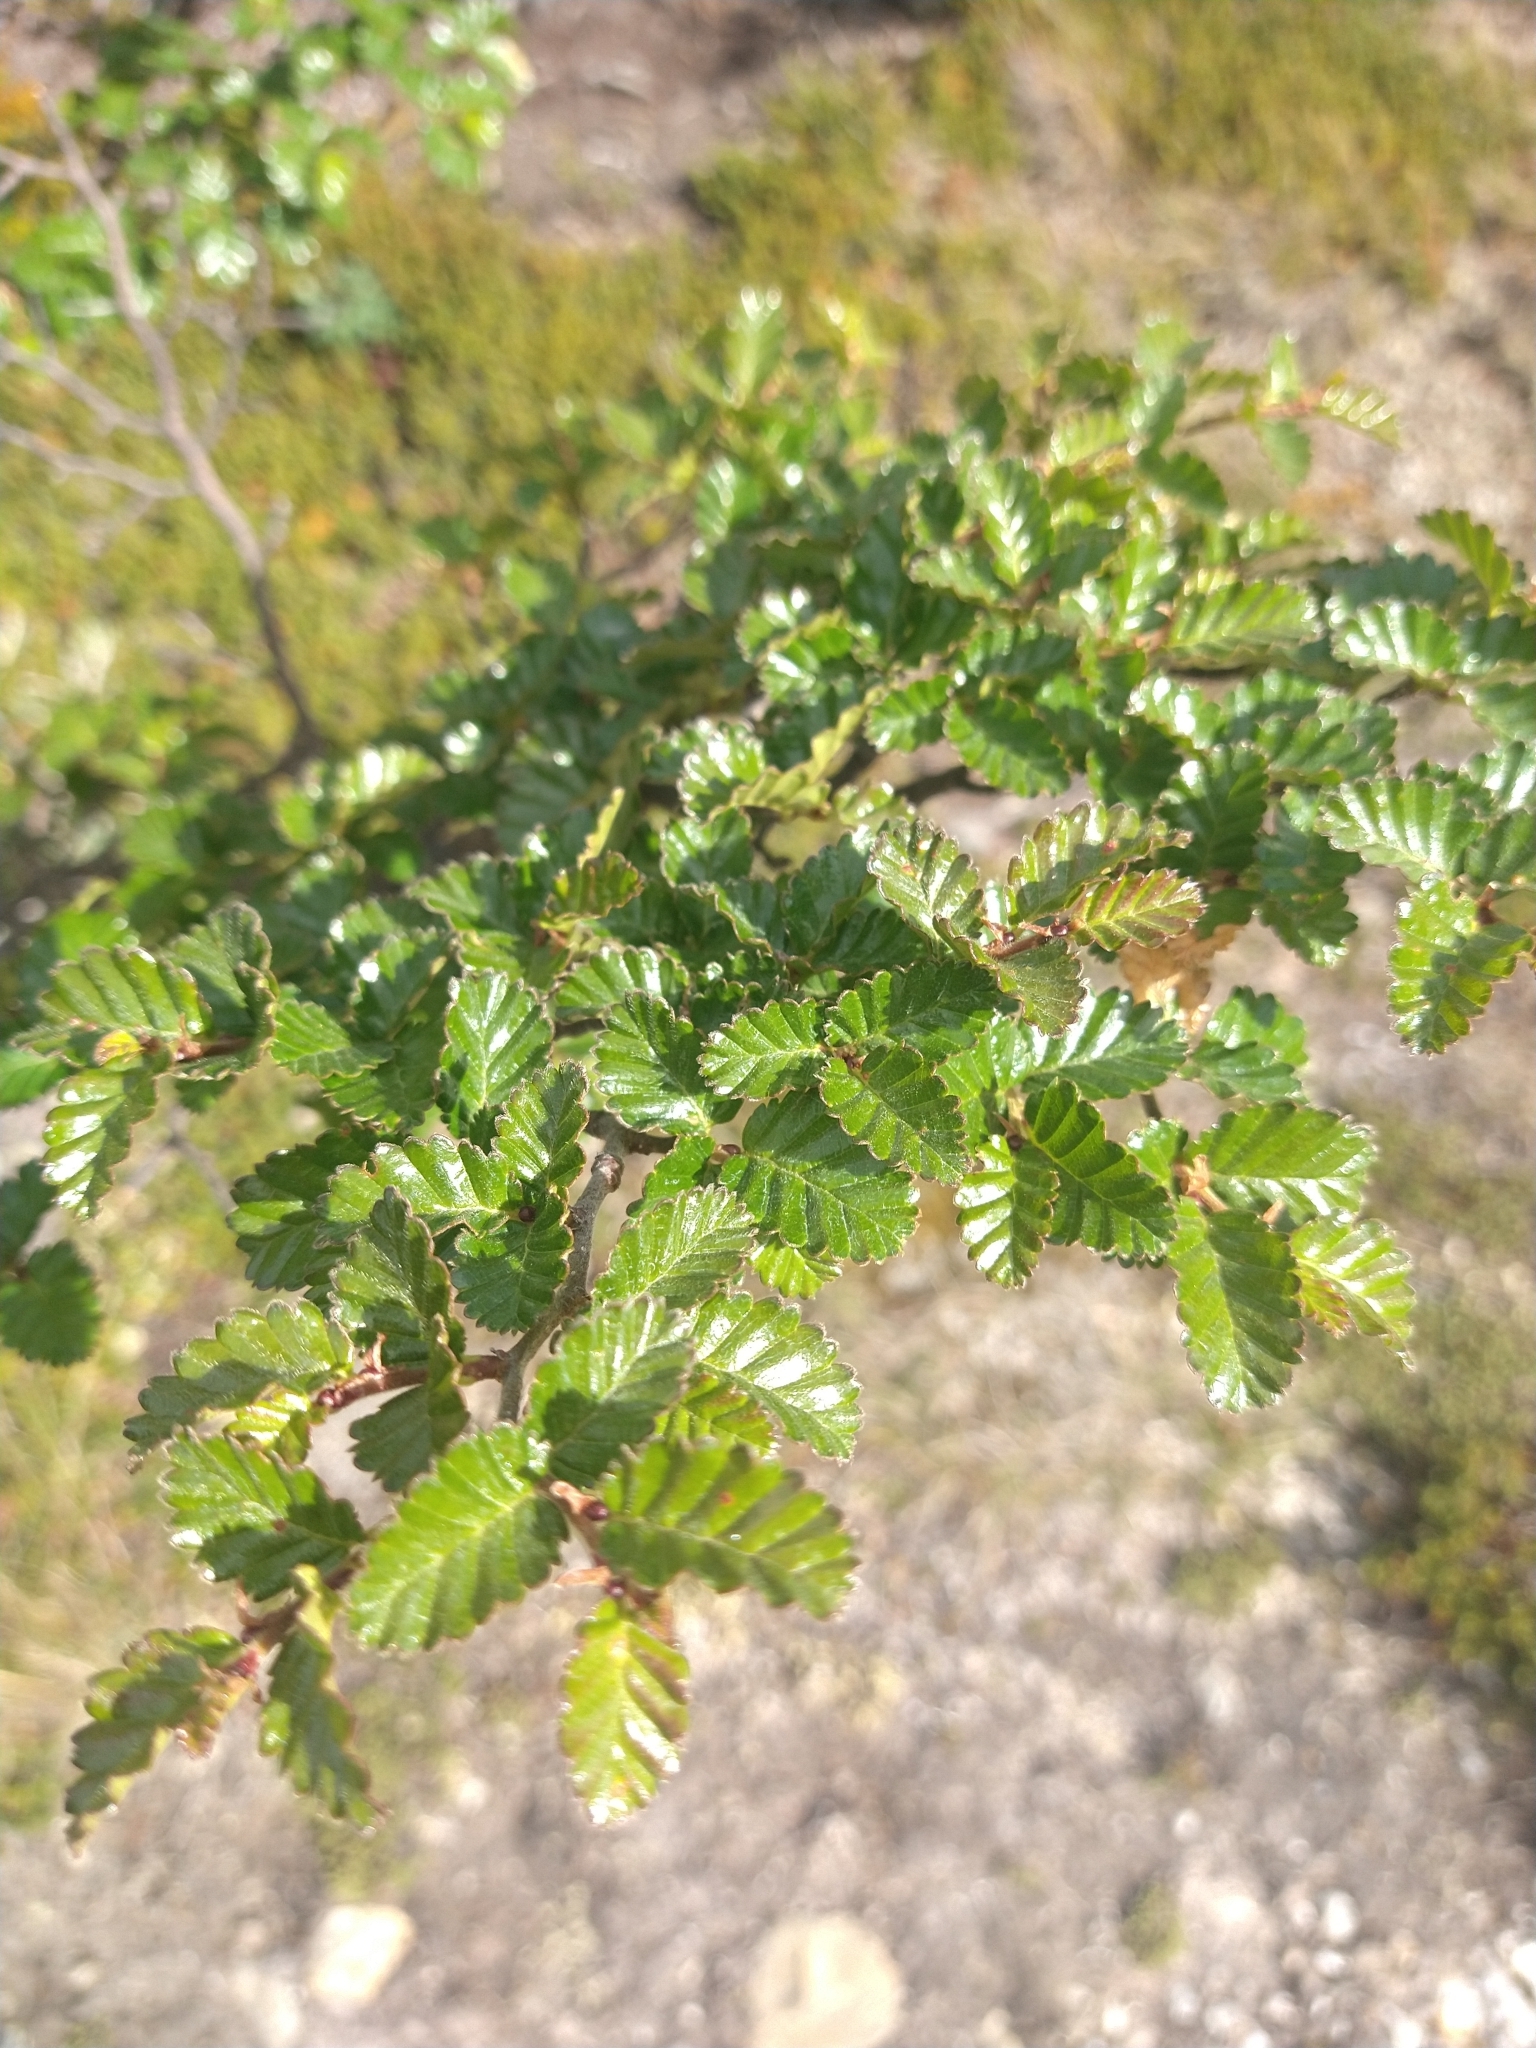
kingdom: Plantae
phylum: Tracheophyta
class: Magnoliopsida
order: Fagales
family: Nothofagaceae
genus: Nothofagus
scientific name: Nothofagus pumilio
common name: Lenga beech
